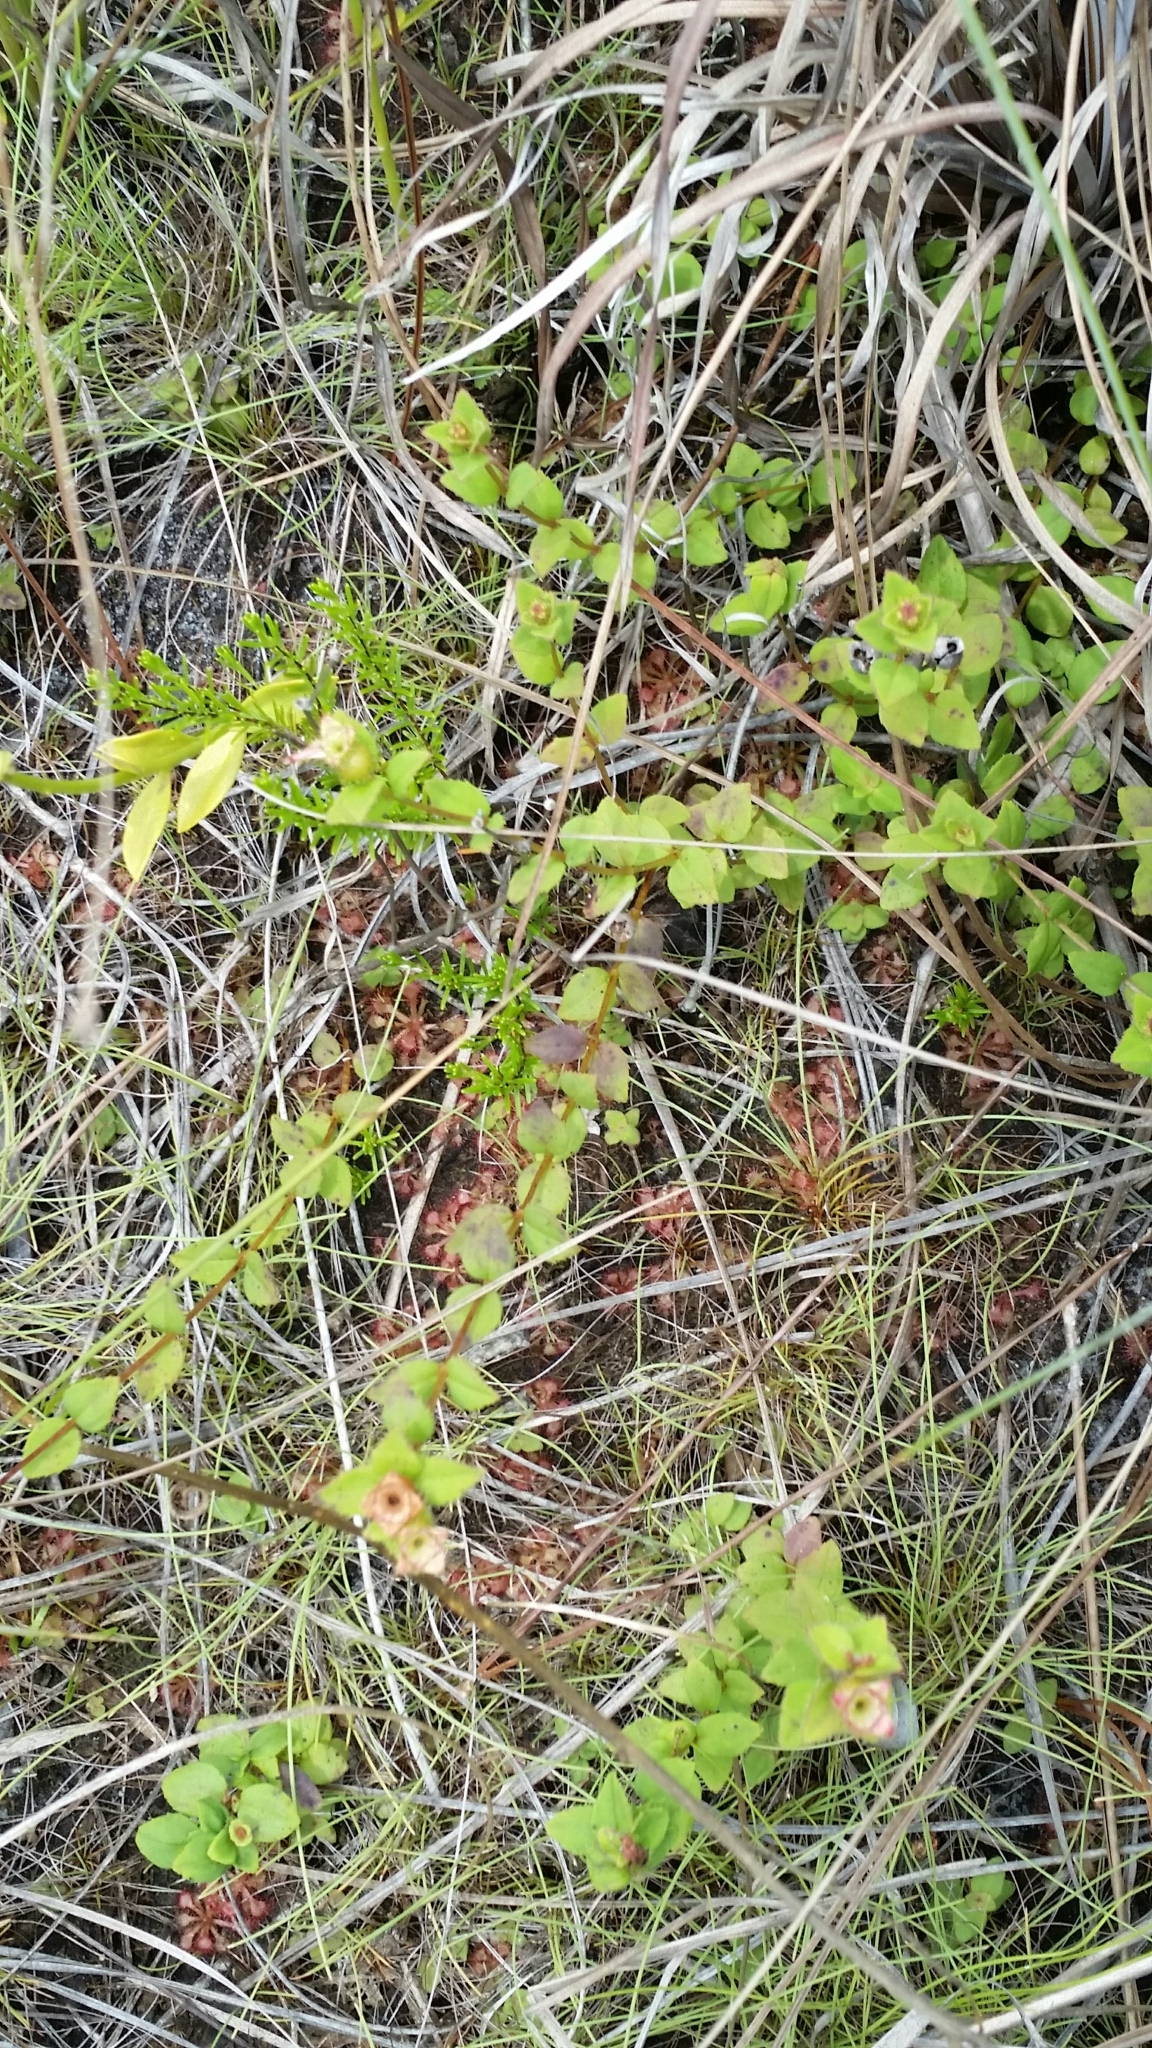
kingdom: Plantae
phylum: Tracheophyta
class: Magnoliopsida
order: Myrtales
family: Melastomataceae
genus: Rhexia
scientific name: Rhexia nuttallii
